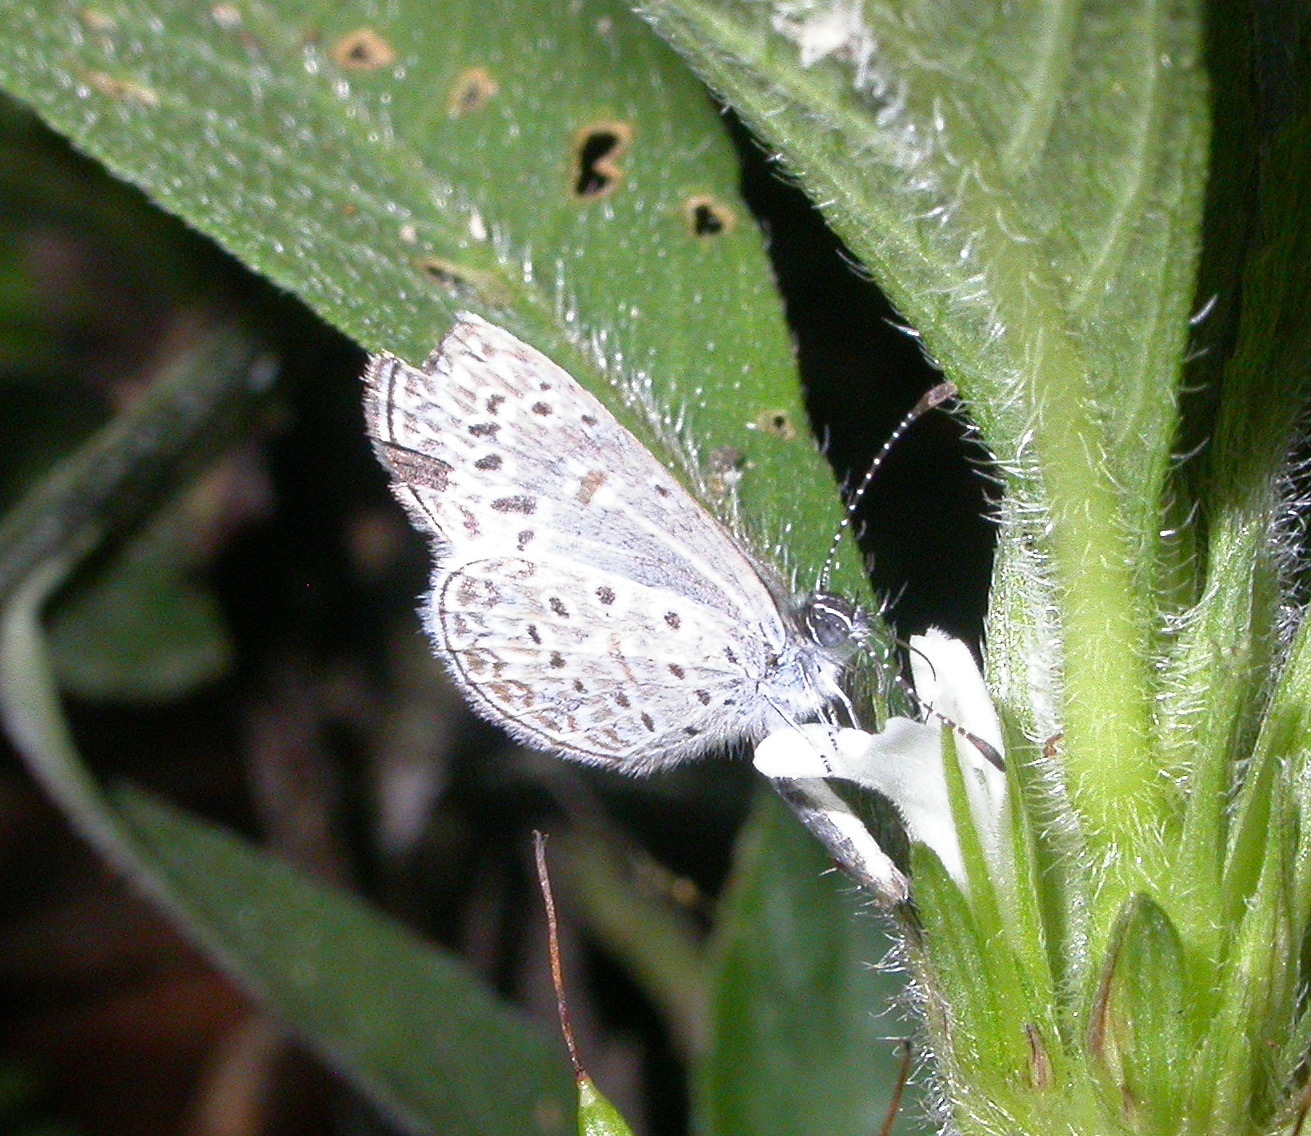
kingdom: Animalia
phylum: Arthropoda
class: Insecta
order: Lepidoptera
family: Lycaenidae
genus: Lycaena
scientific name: Lycaena cyna
